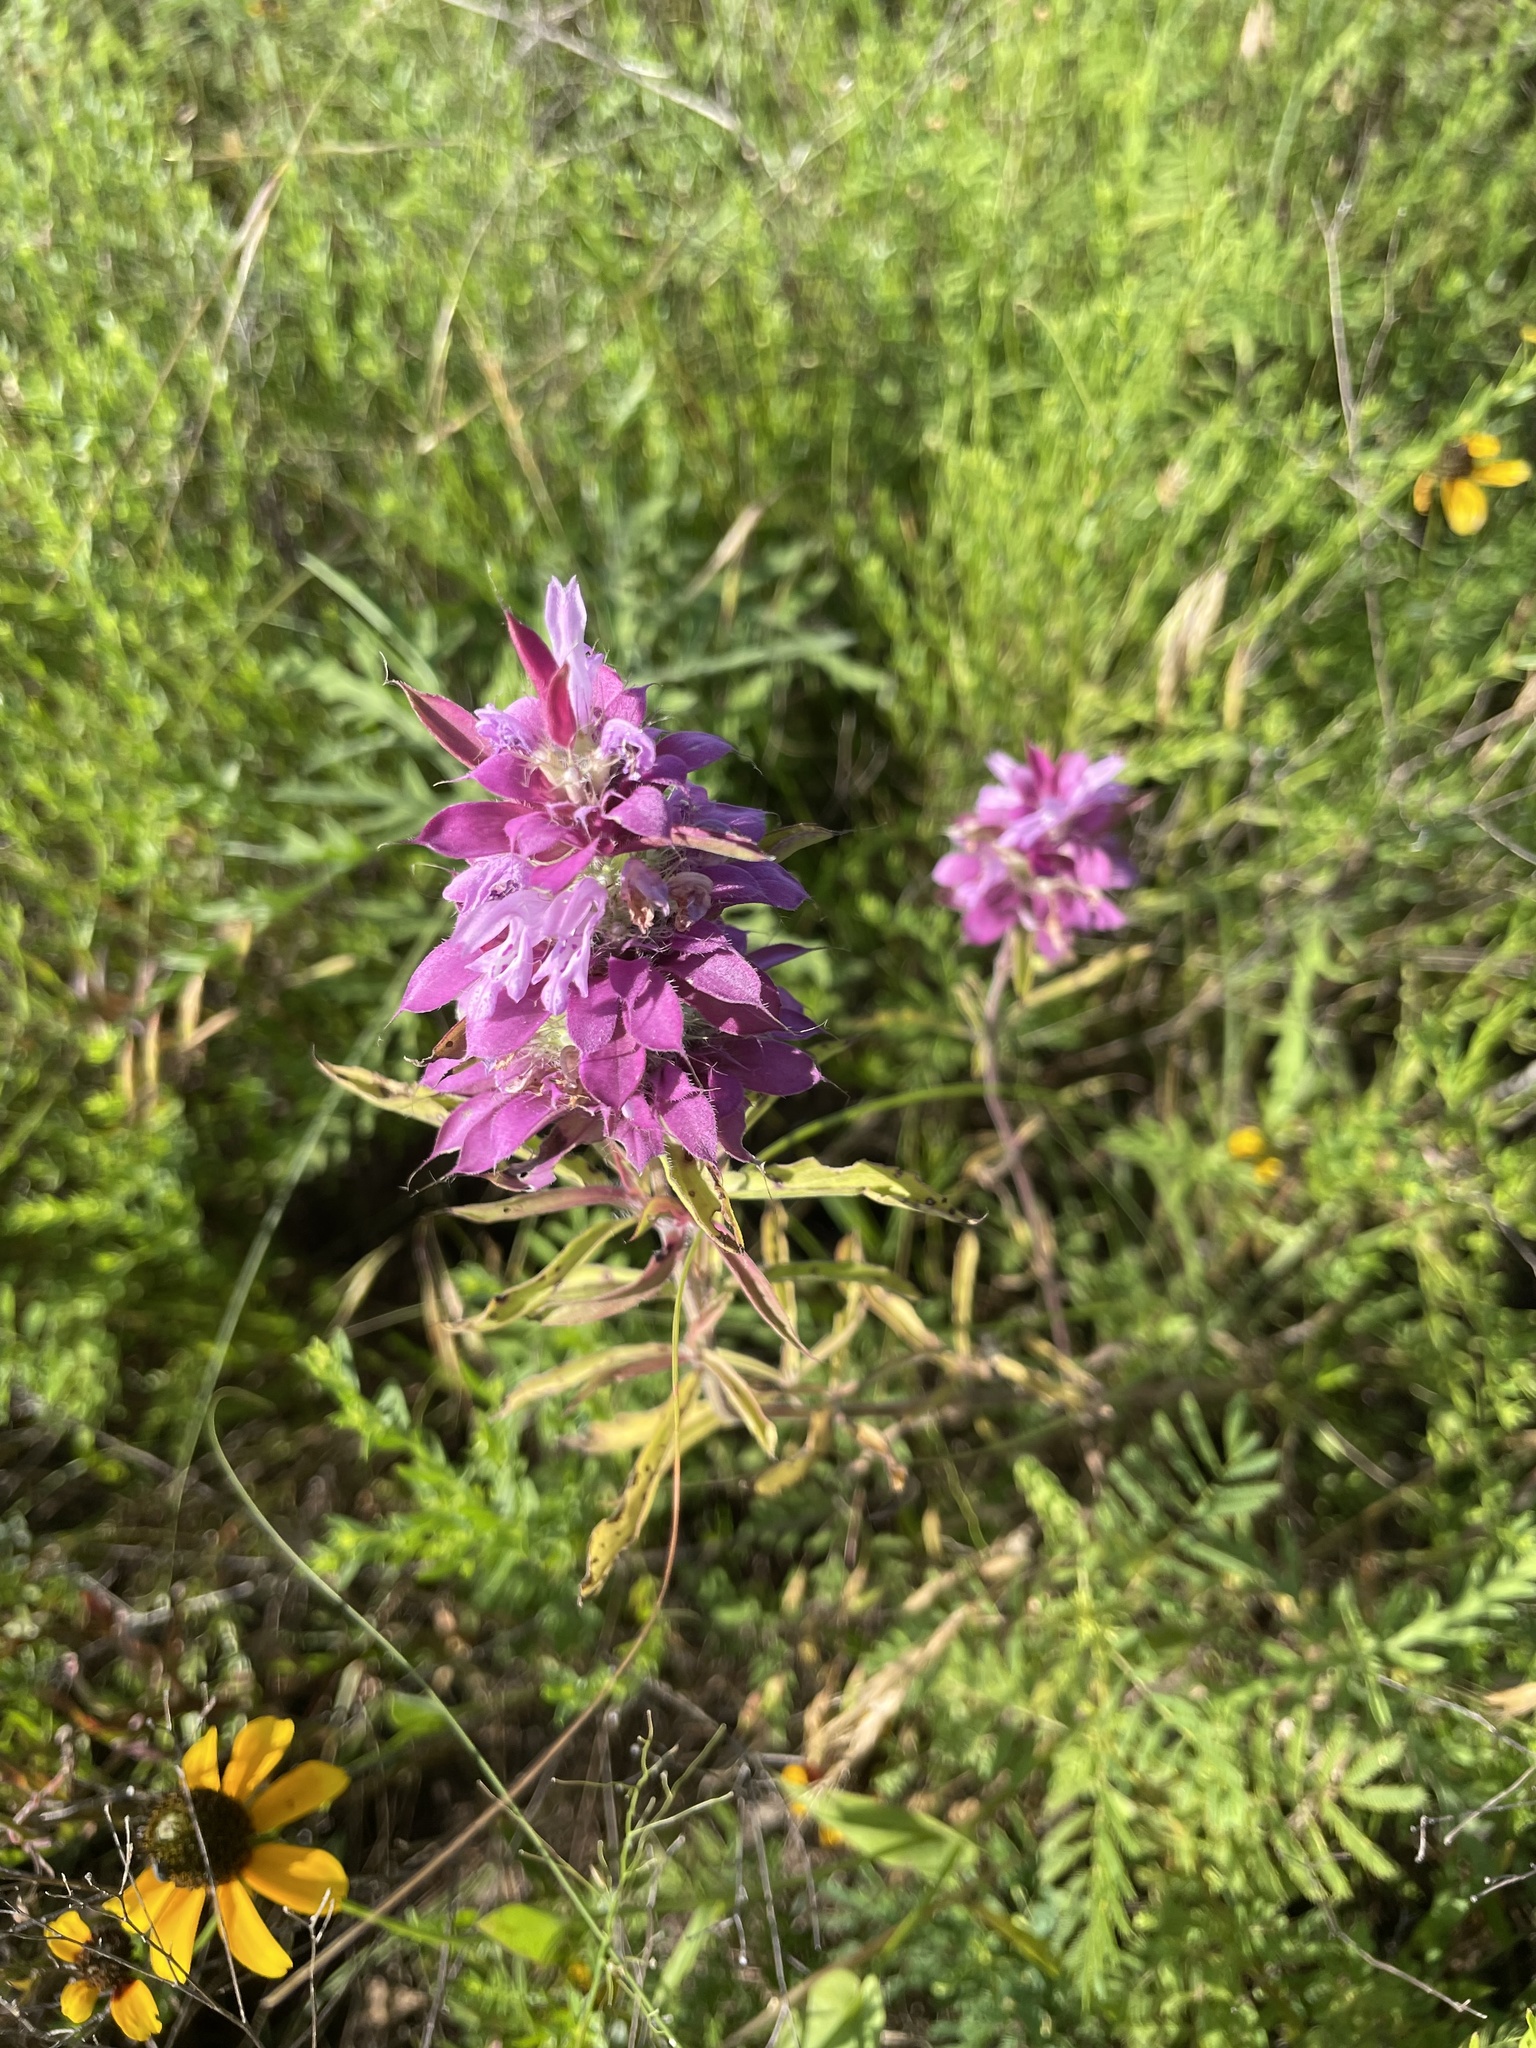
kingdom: Plantae
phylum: Tracheophyta
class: Magnoliopsida
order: Lamiales
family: Lamiaceae
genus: Monarda
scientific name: Monarda citriodora
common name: Lemon beebalm
